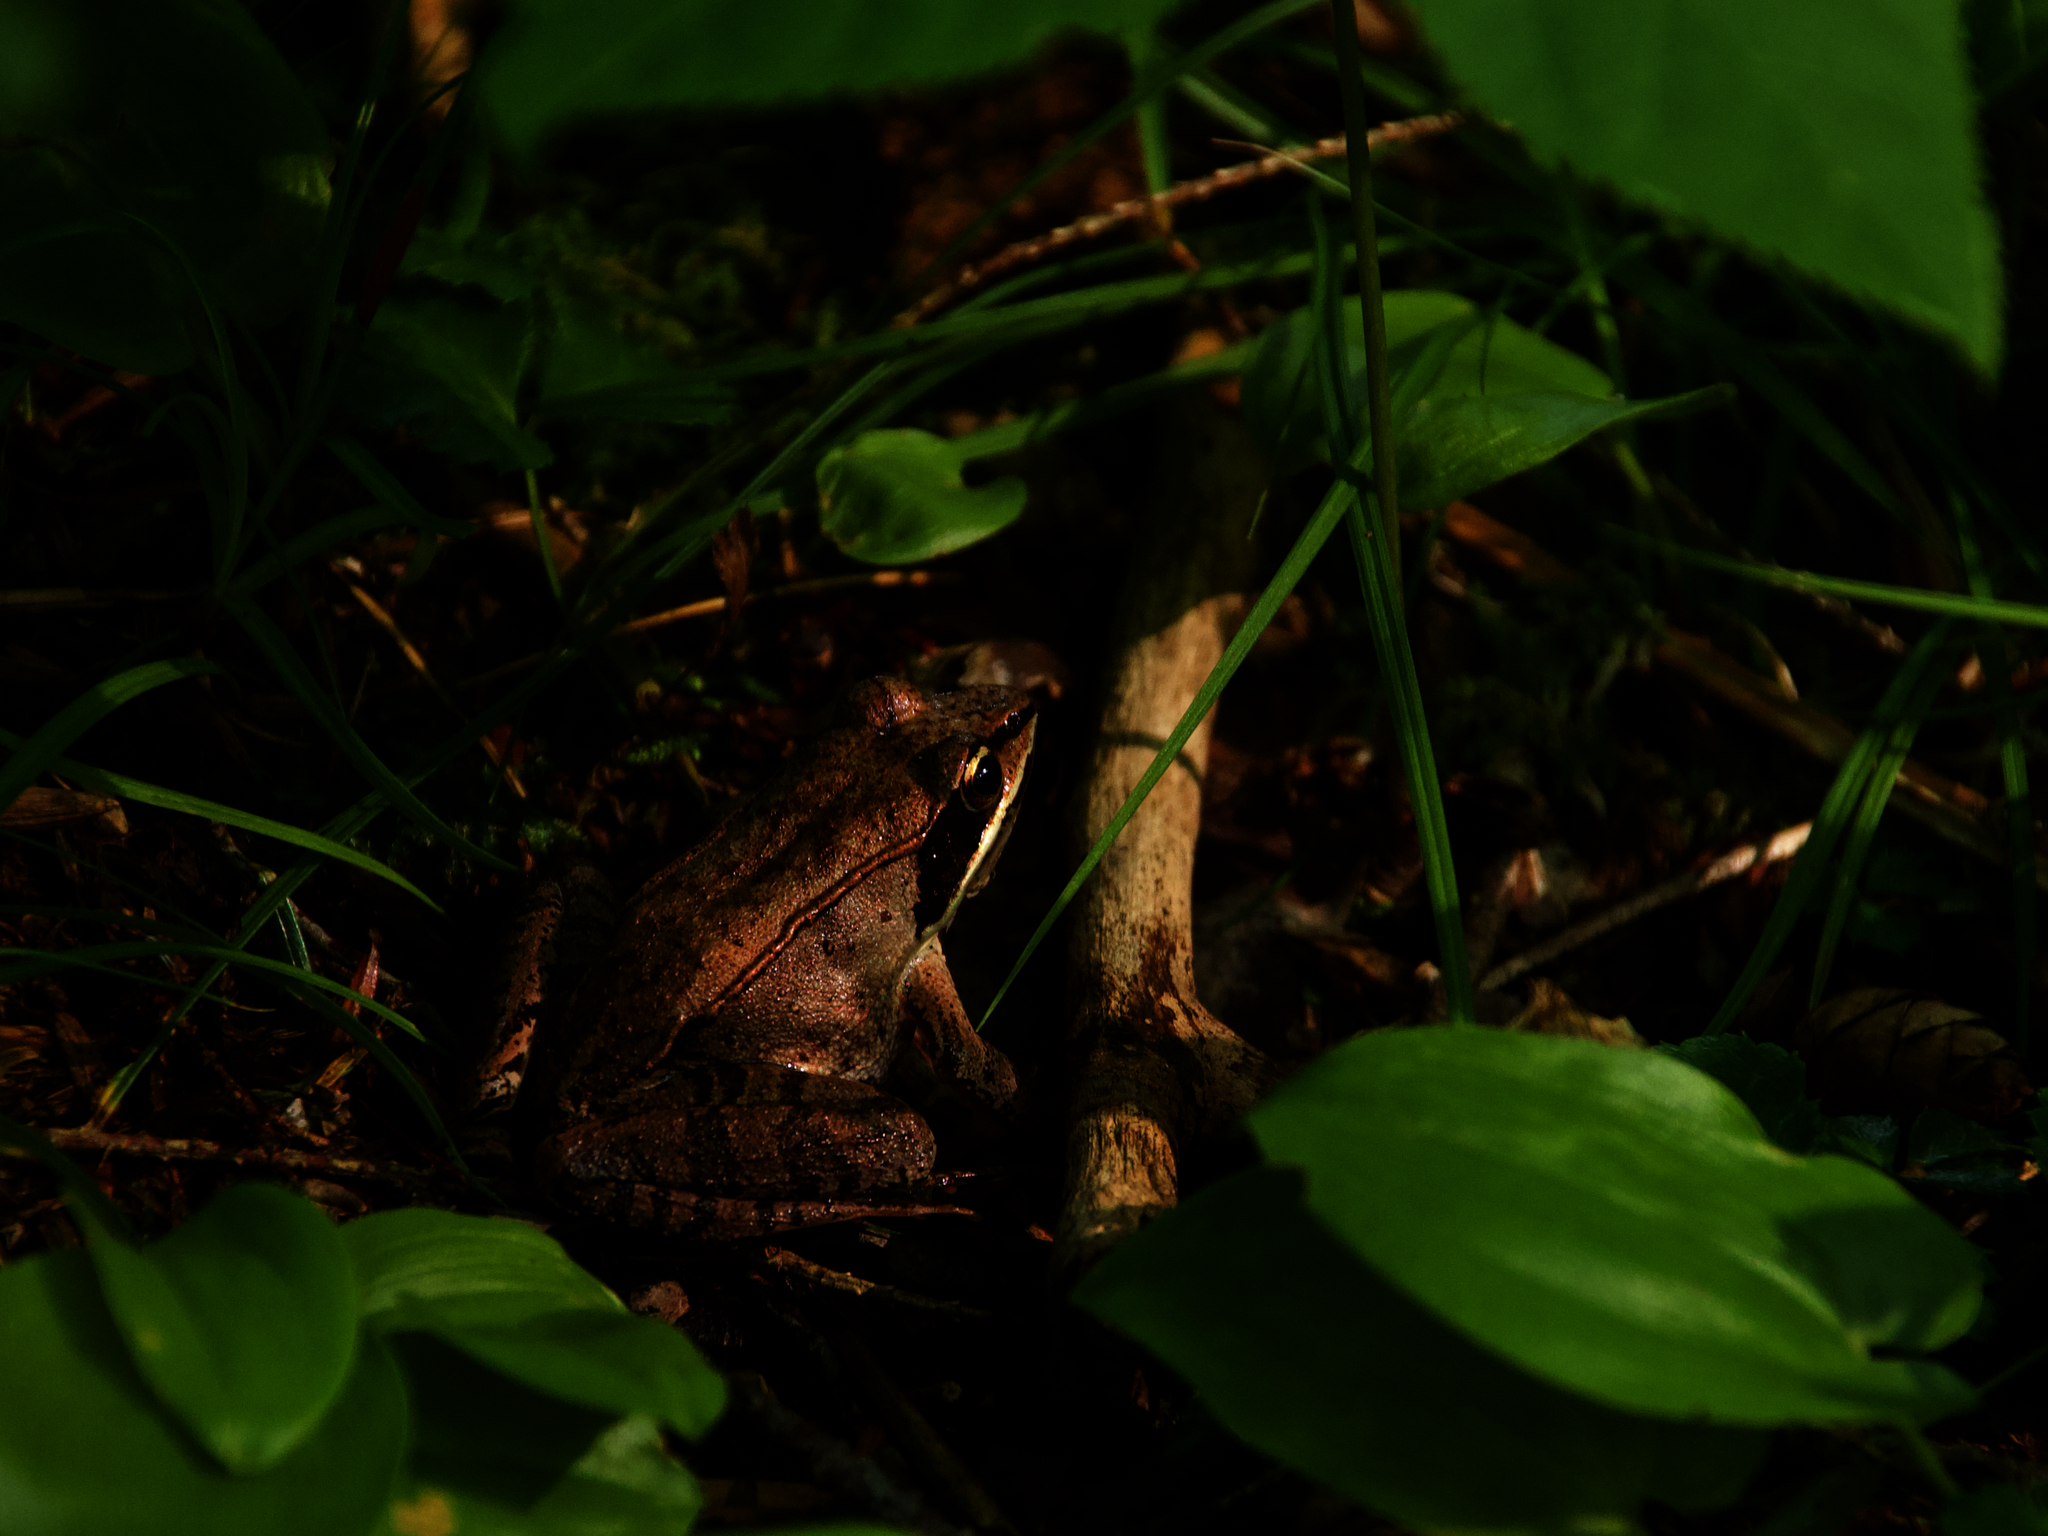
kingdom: Animalia
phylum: Chordata
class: Amphibia
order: Anura
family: Ranidae
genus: Lithobates
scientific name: Lithobates sylvaticus
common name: Wood frog
